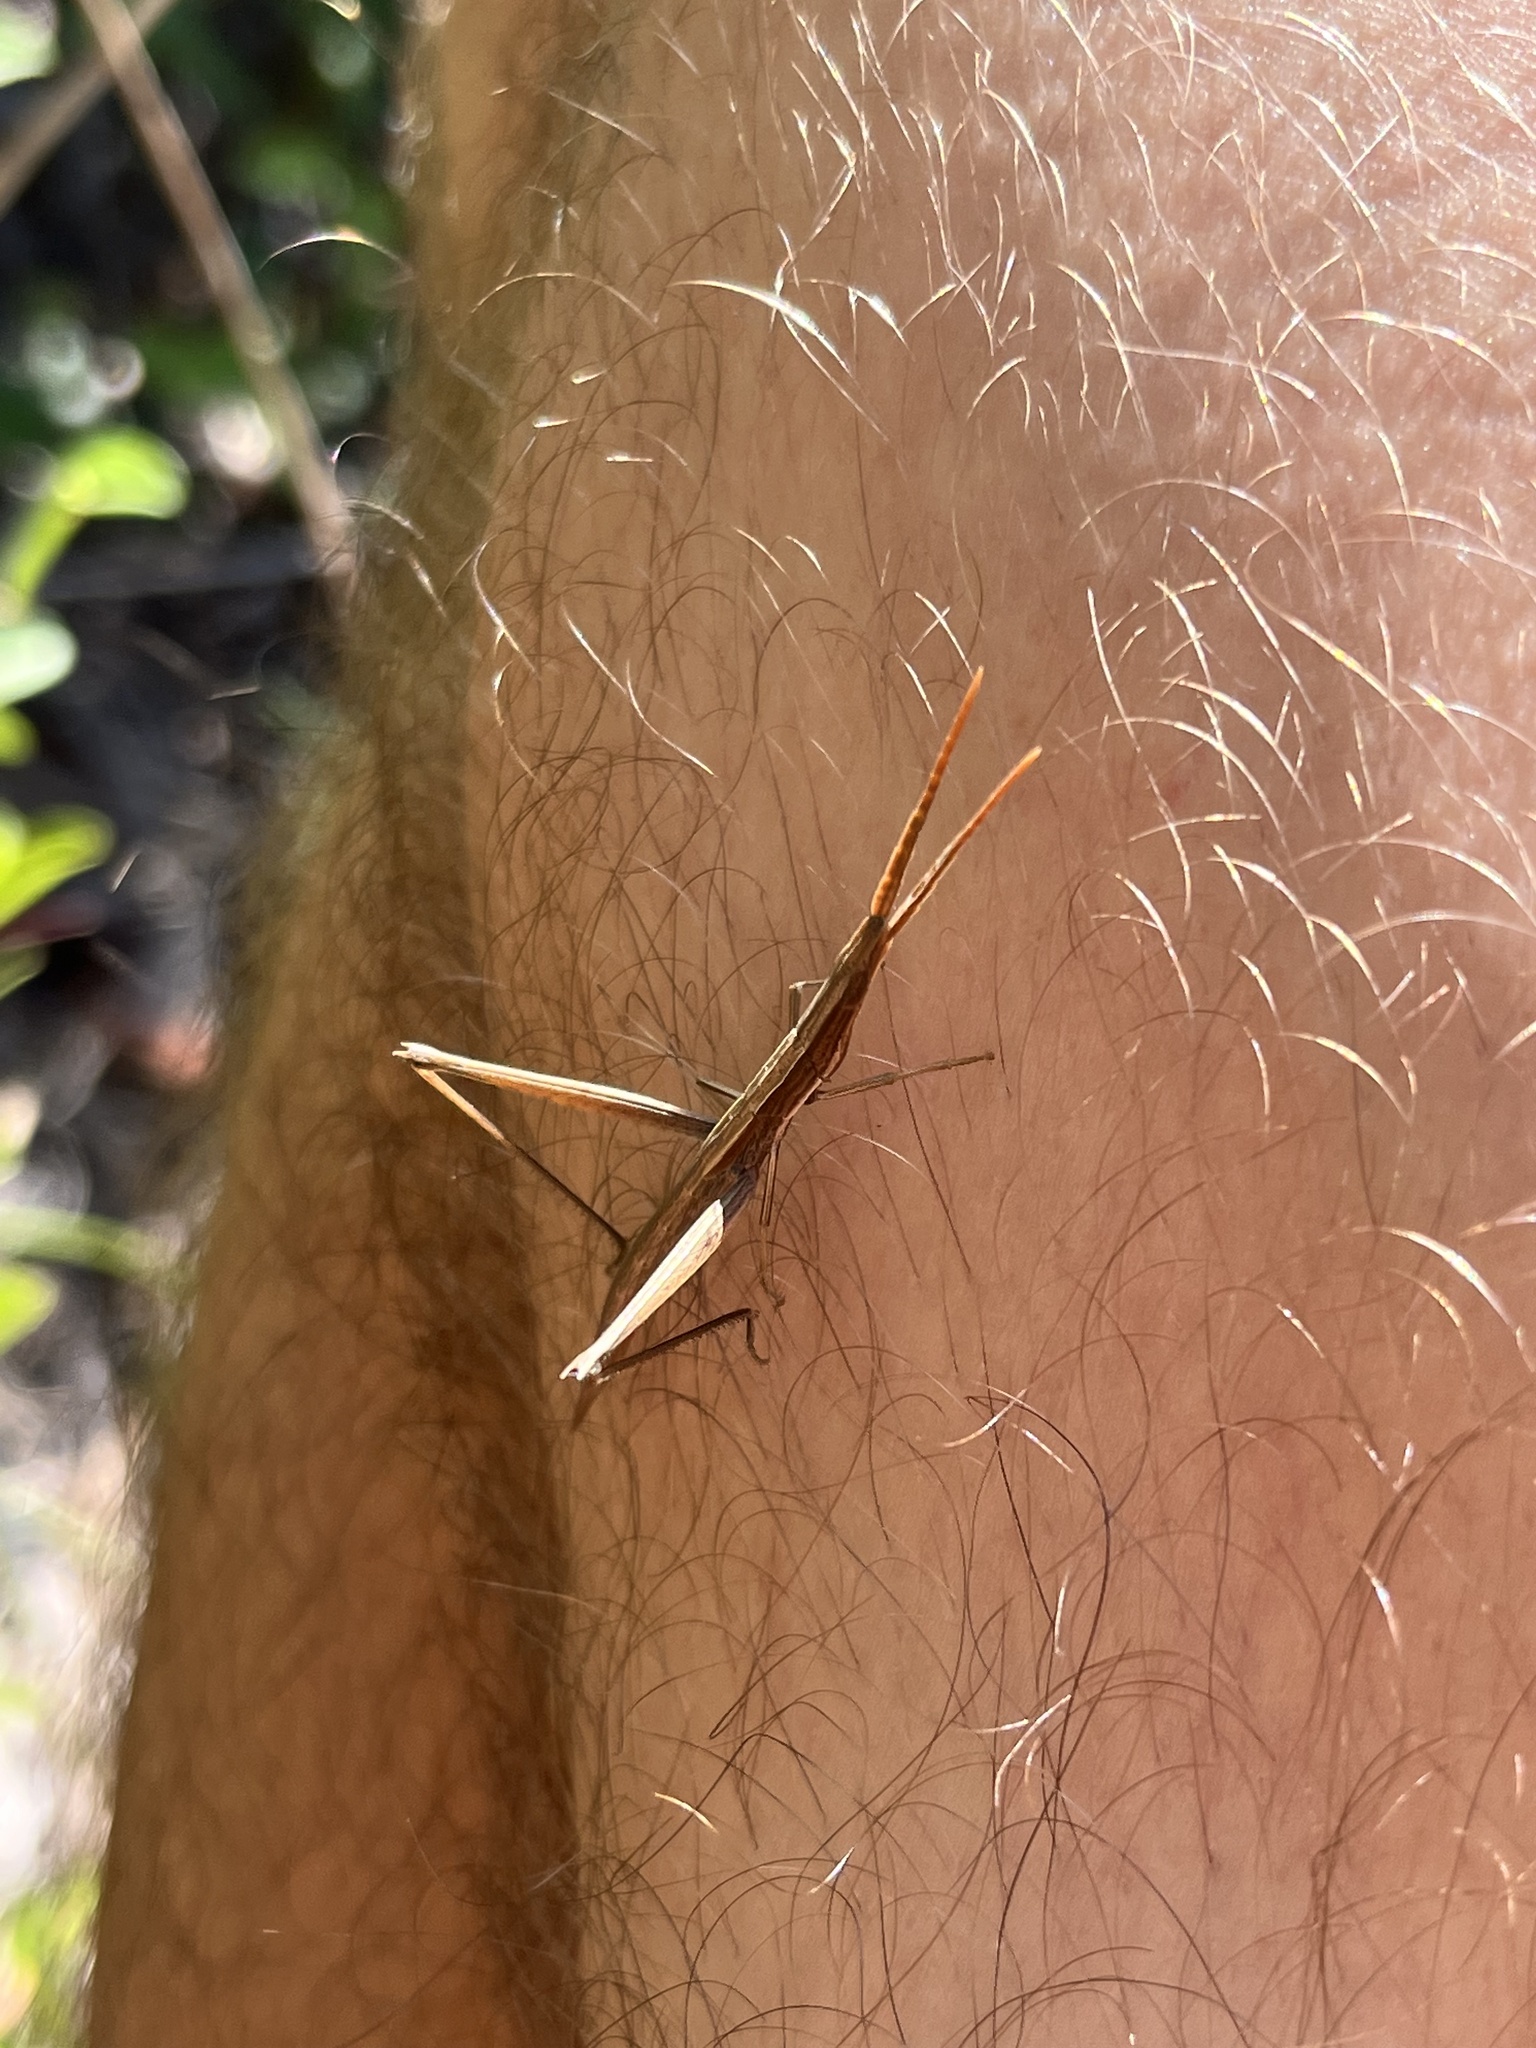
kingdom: Animalia
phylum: Arthropoda
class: Insecta
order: Orthoptera
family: Acrididae
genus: Achurum
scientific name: Achurum carinatum
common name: Long-headed toothpick grasshopper
